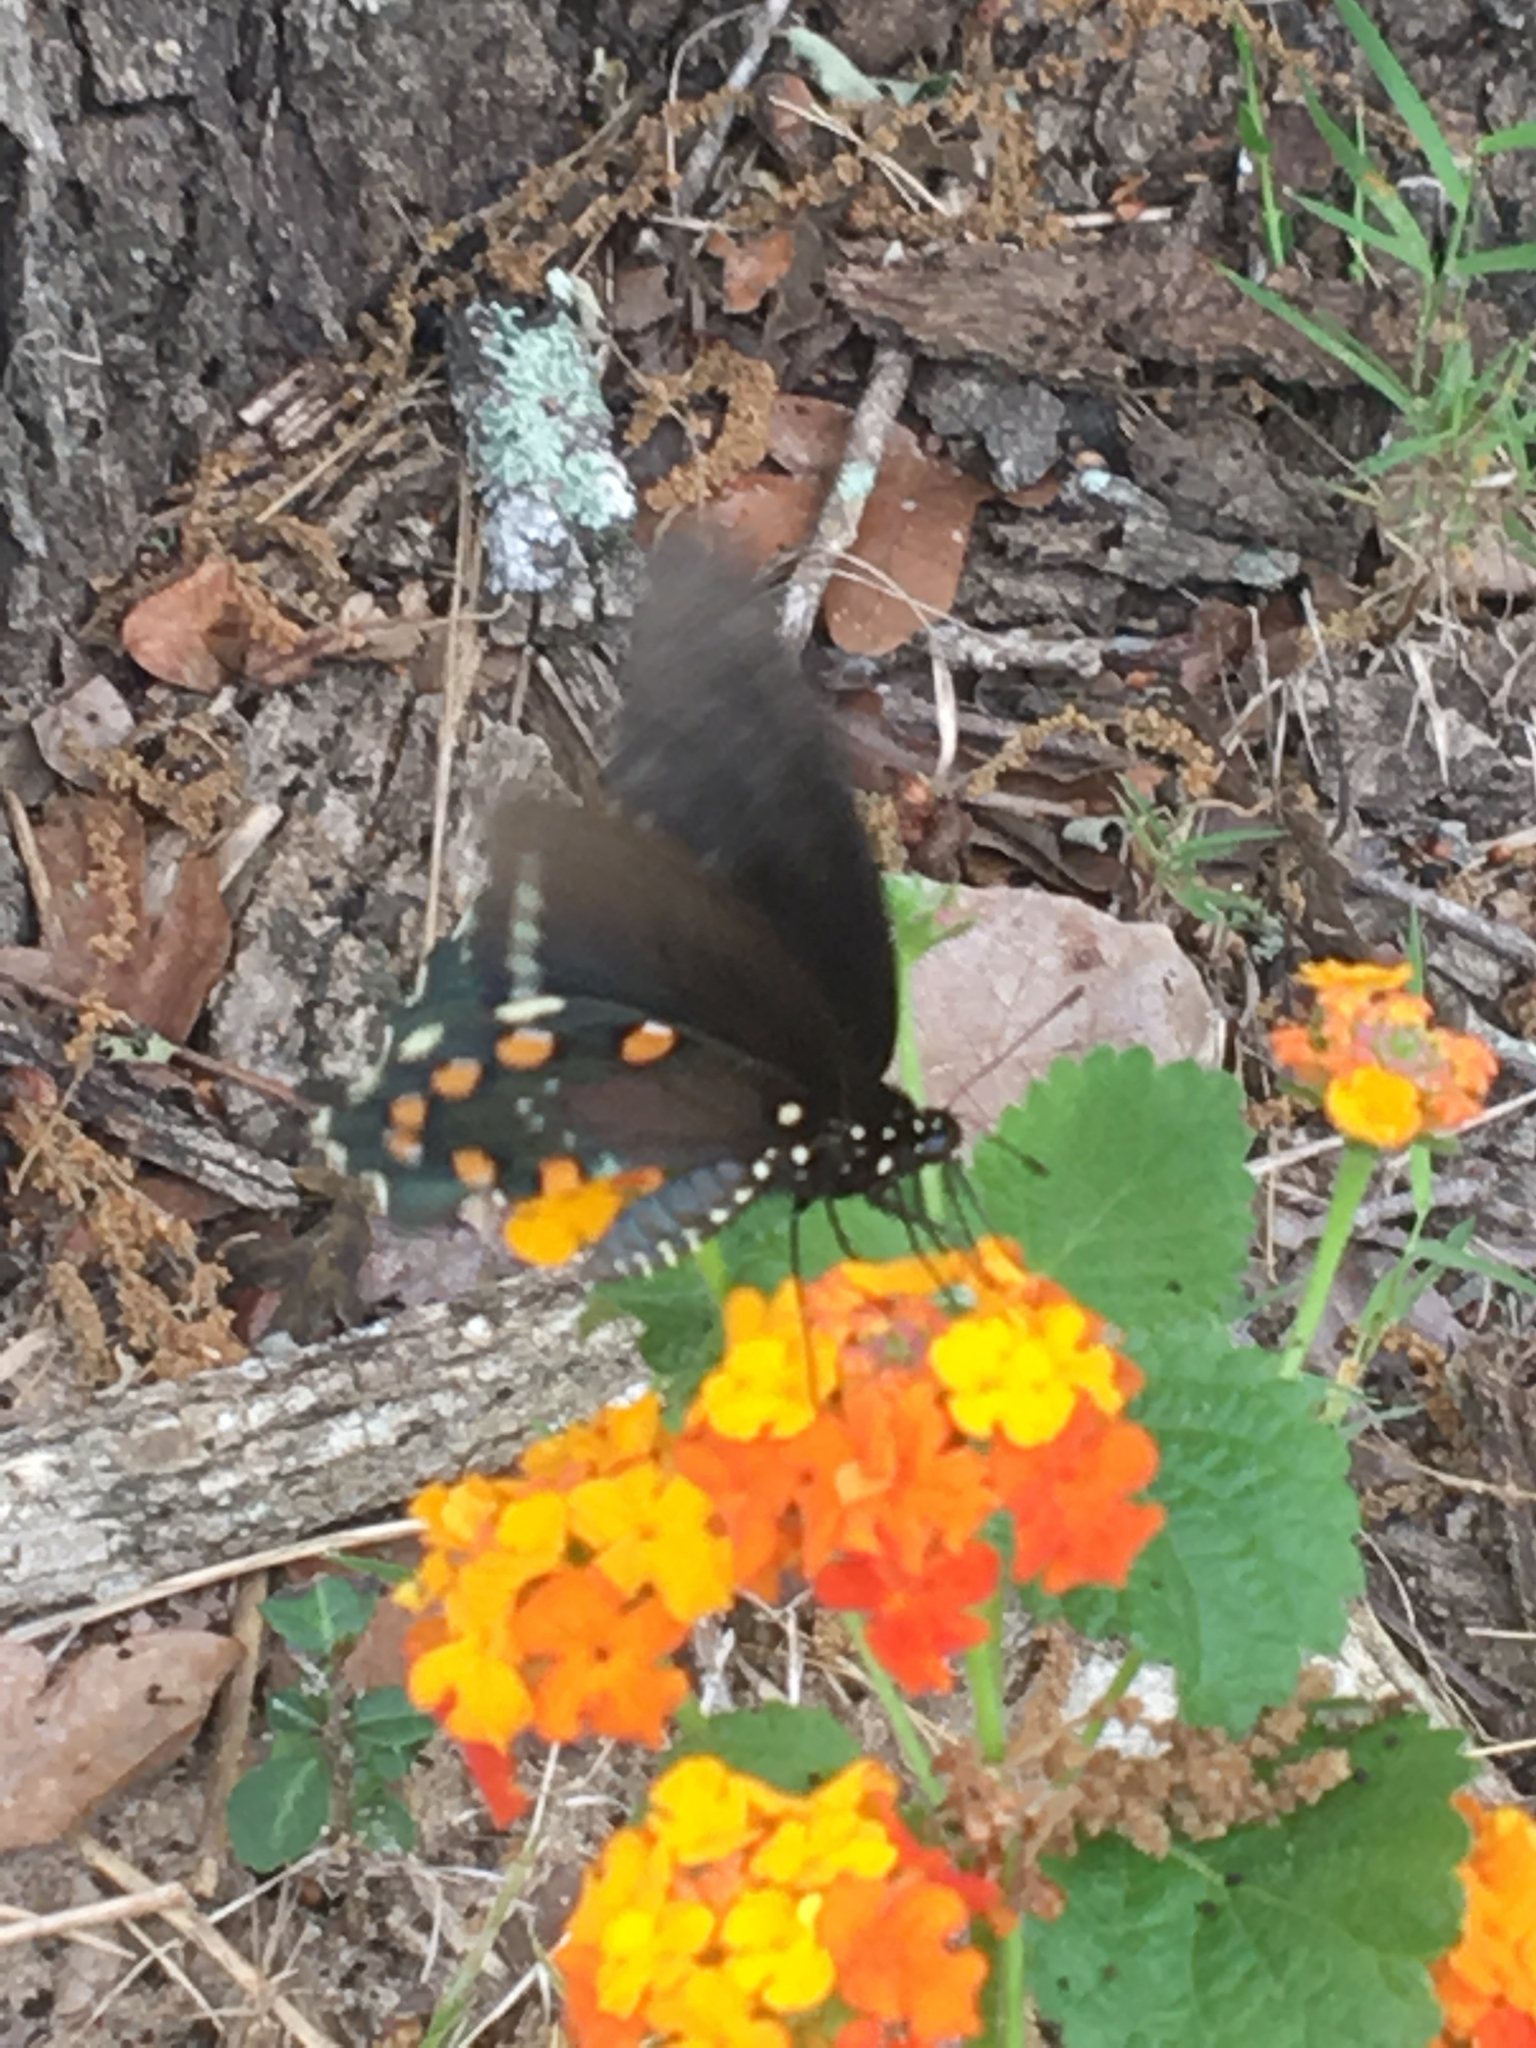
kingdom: Animalia
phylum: Arthropoda
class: Insecta
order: Lepidoptera
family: Papilionidae
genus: Battus
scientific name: Battus philenor
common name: Pipevine swallowtail
